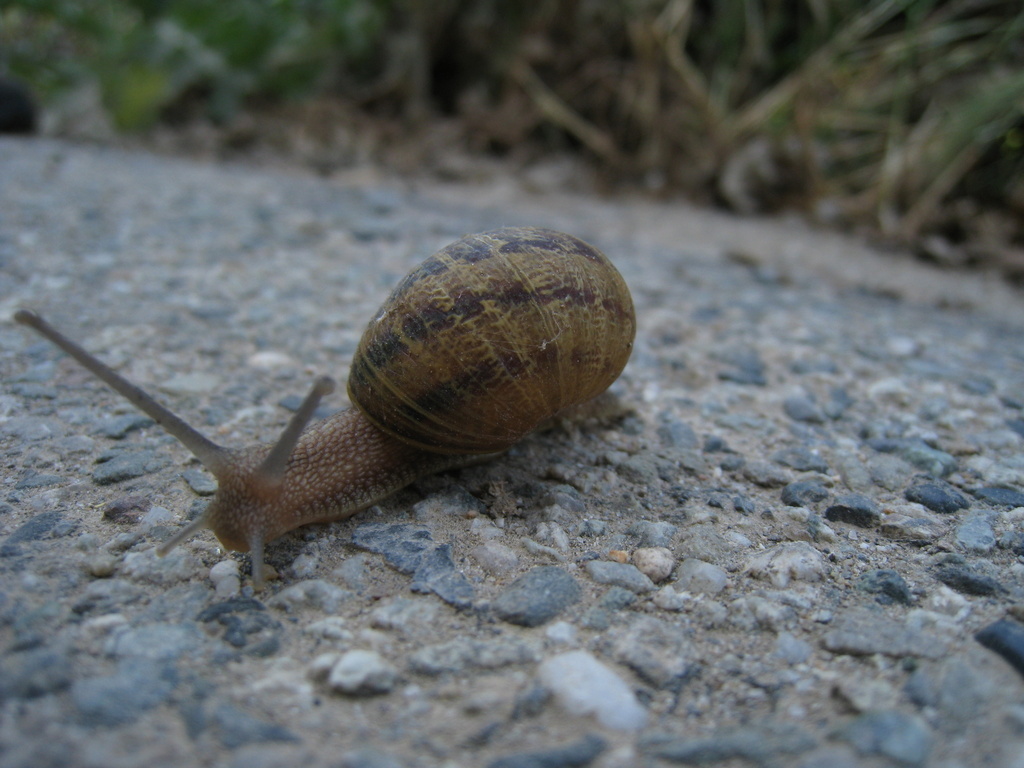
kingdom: Animalia
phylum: Mollusca
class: Gastropoda
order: Stylommatophora
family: Helicidae
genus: Cornu
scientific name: Cornu aspersum
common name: Brown garden snail
